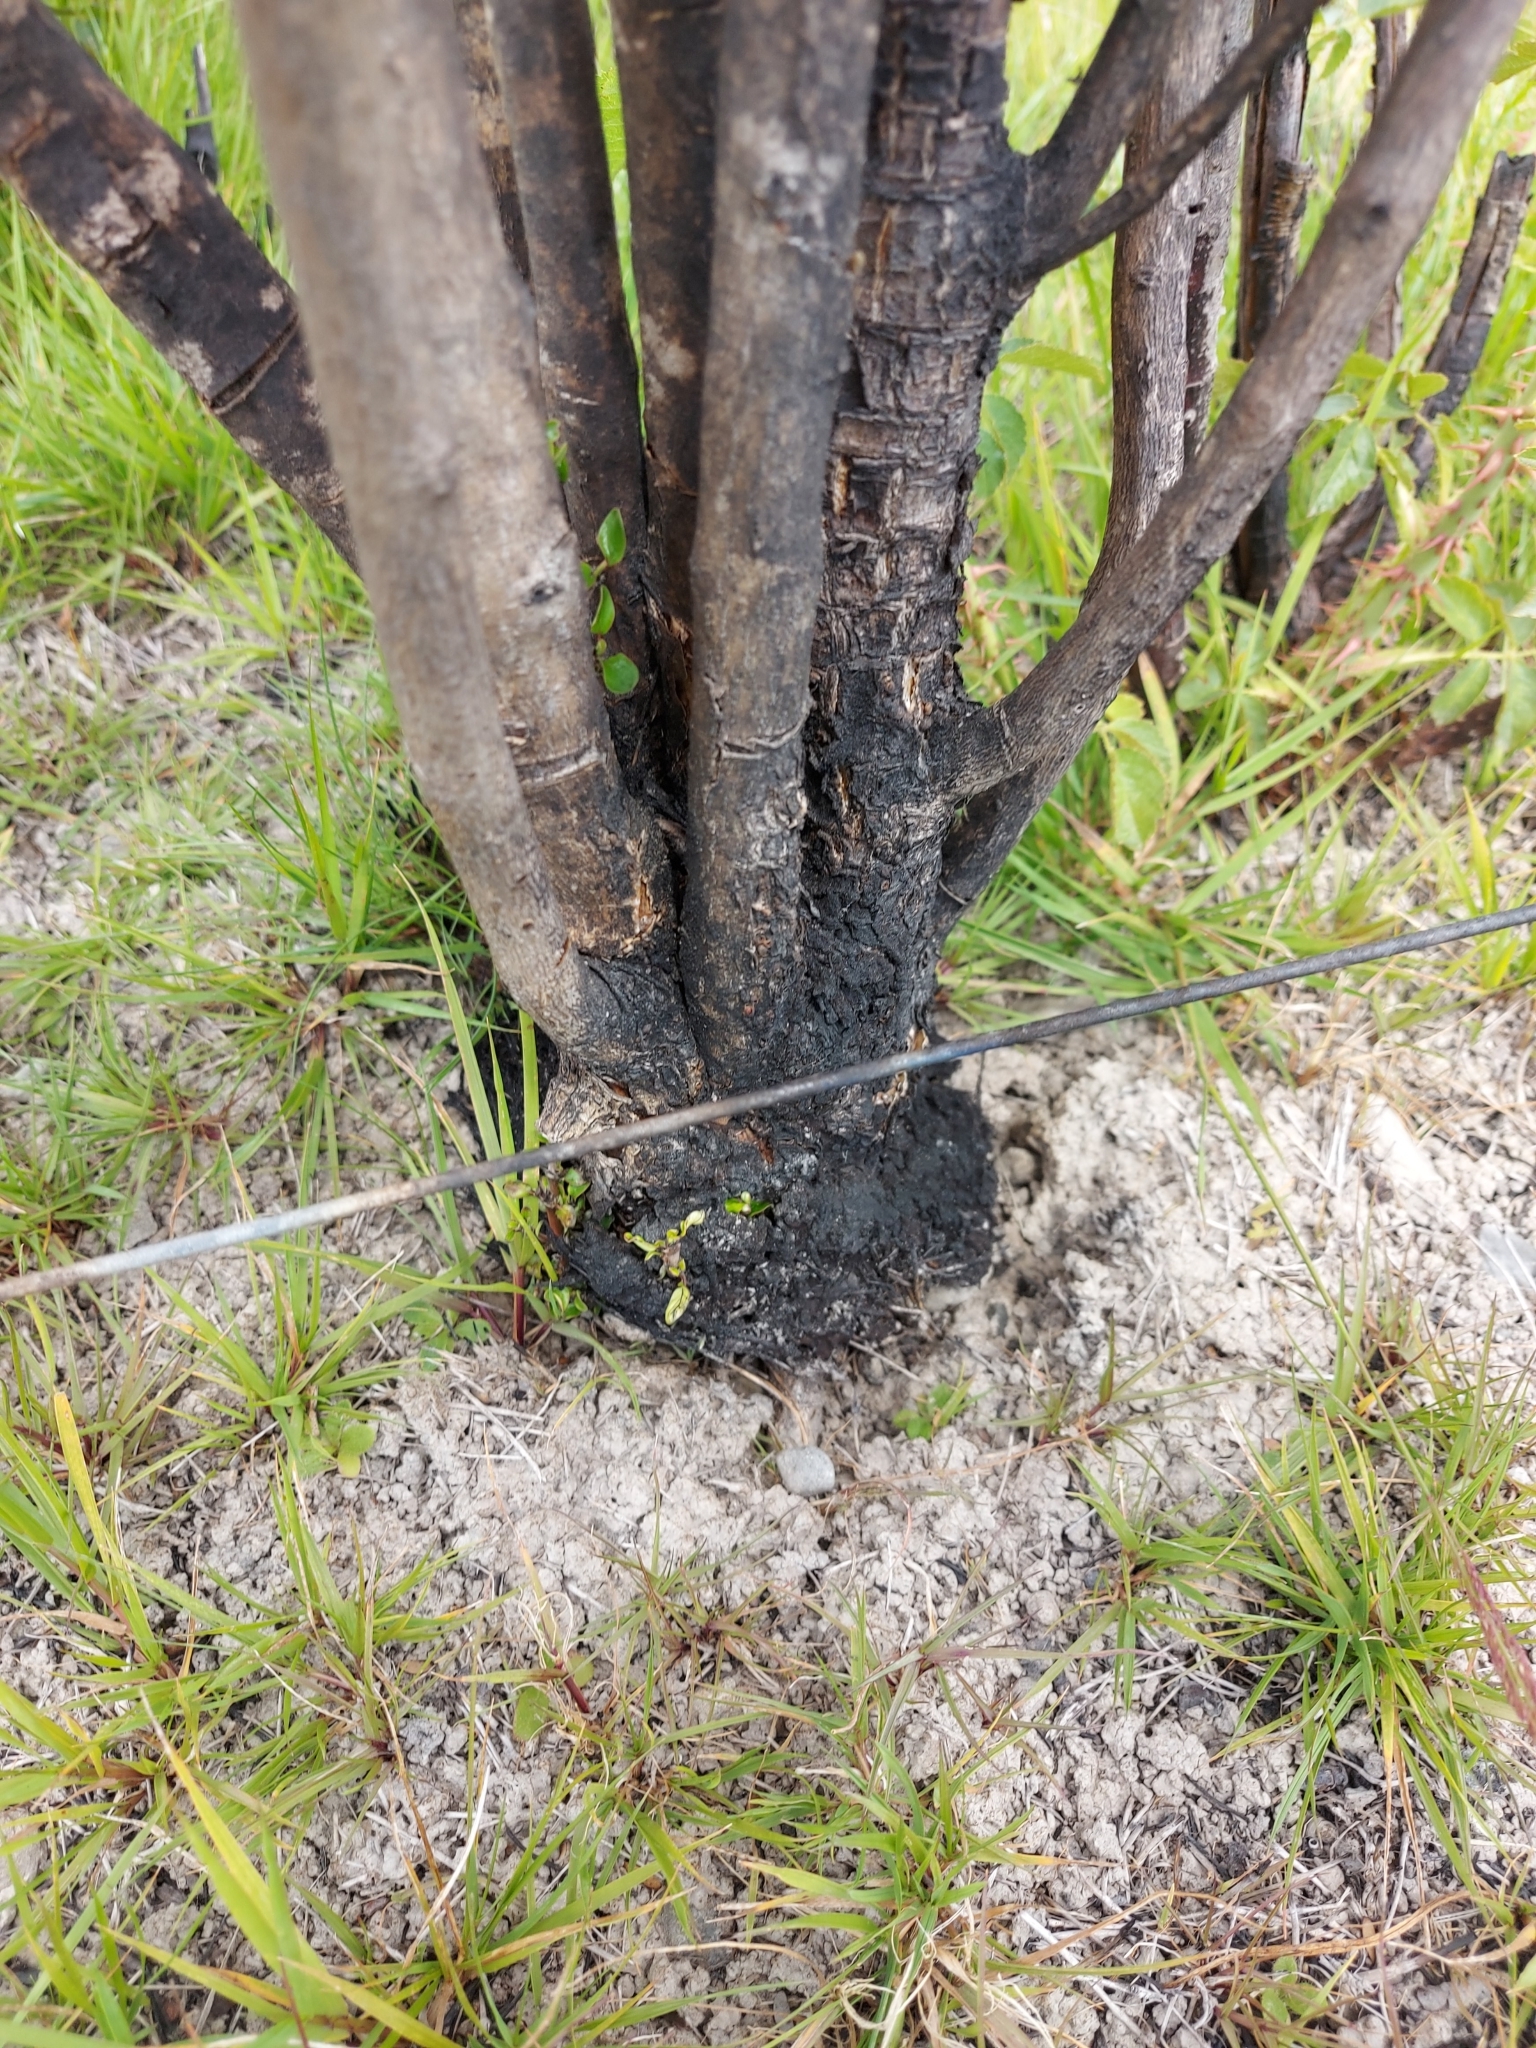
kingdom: Plantae
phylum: Tracheophyta
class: Magnoliopsida
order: Gentianales
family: Rubiaceae
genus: Coprosma
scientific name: Coprosma propinqua
